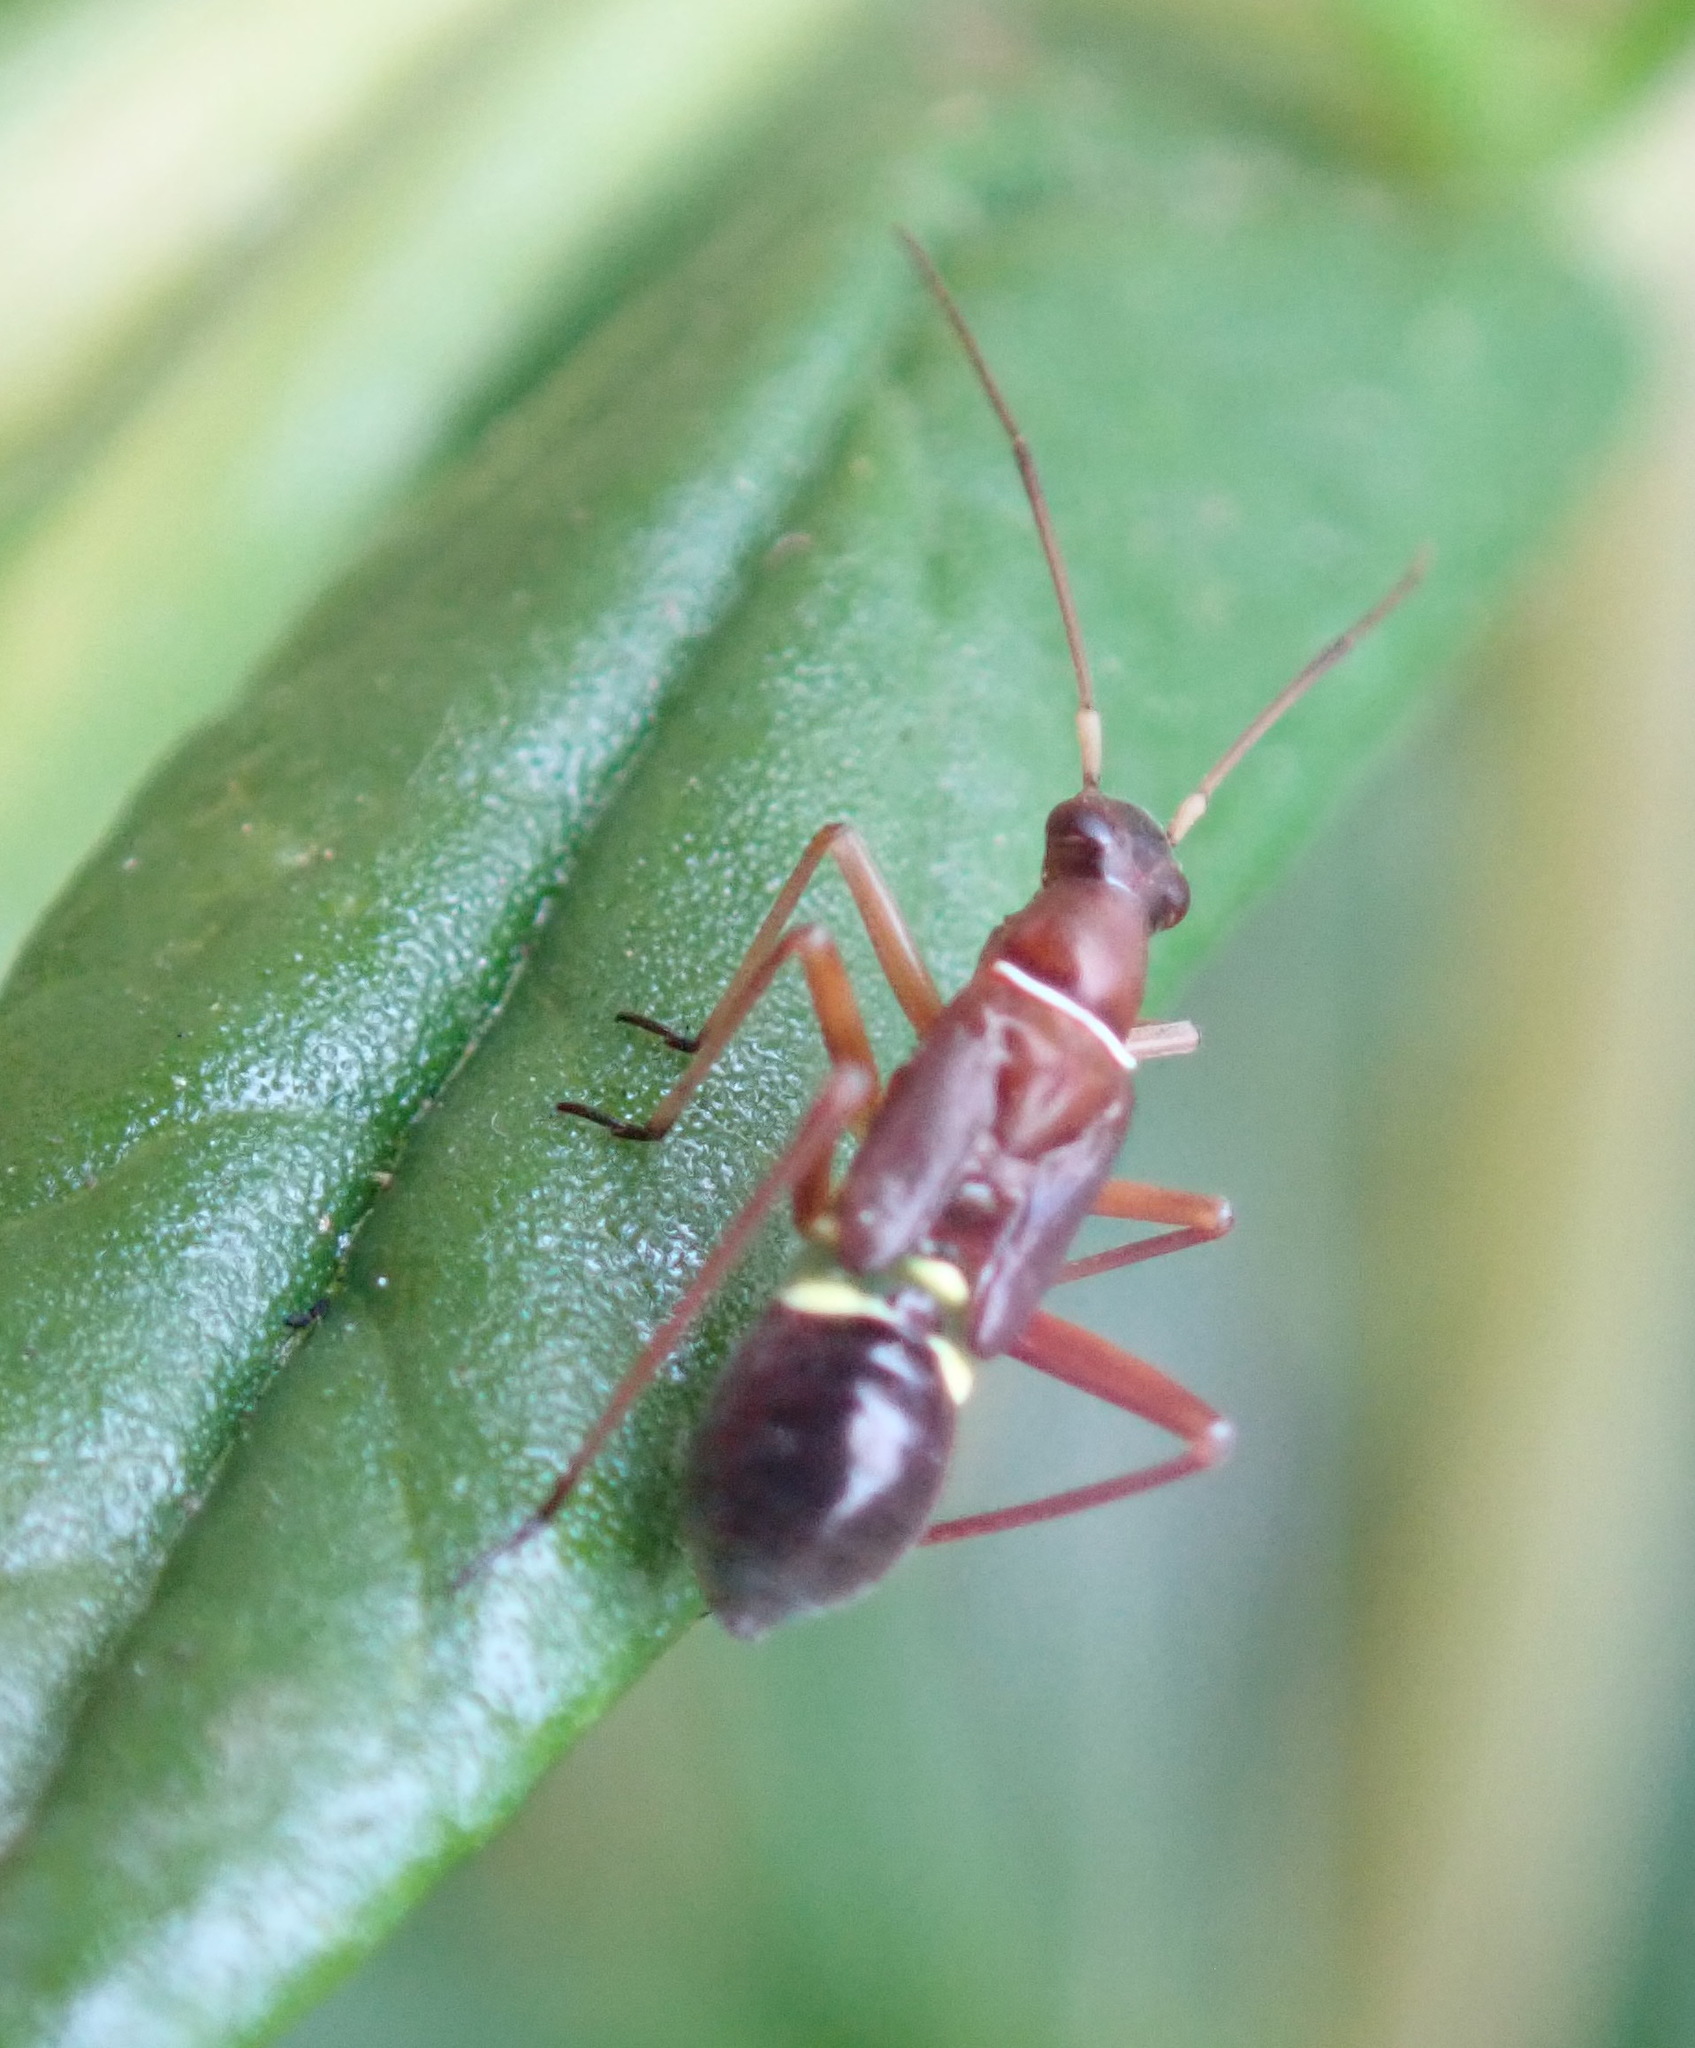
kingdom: Animalia
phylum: Arthropoda
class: Insecta
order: Hemiptera
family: Miridae
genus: Closterocoris
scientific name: Closterocoris amoenus
